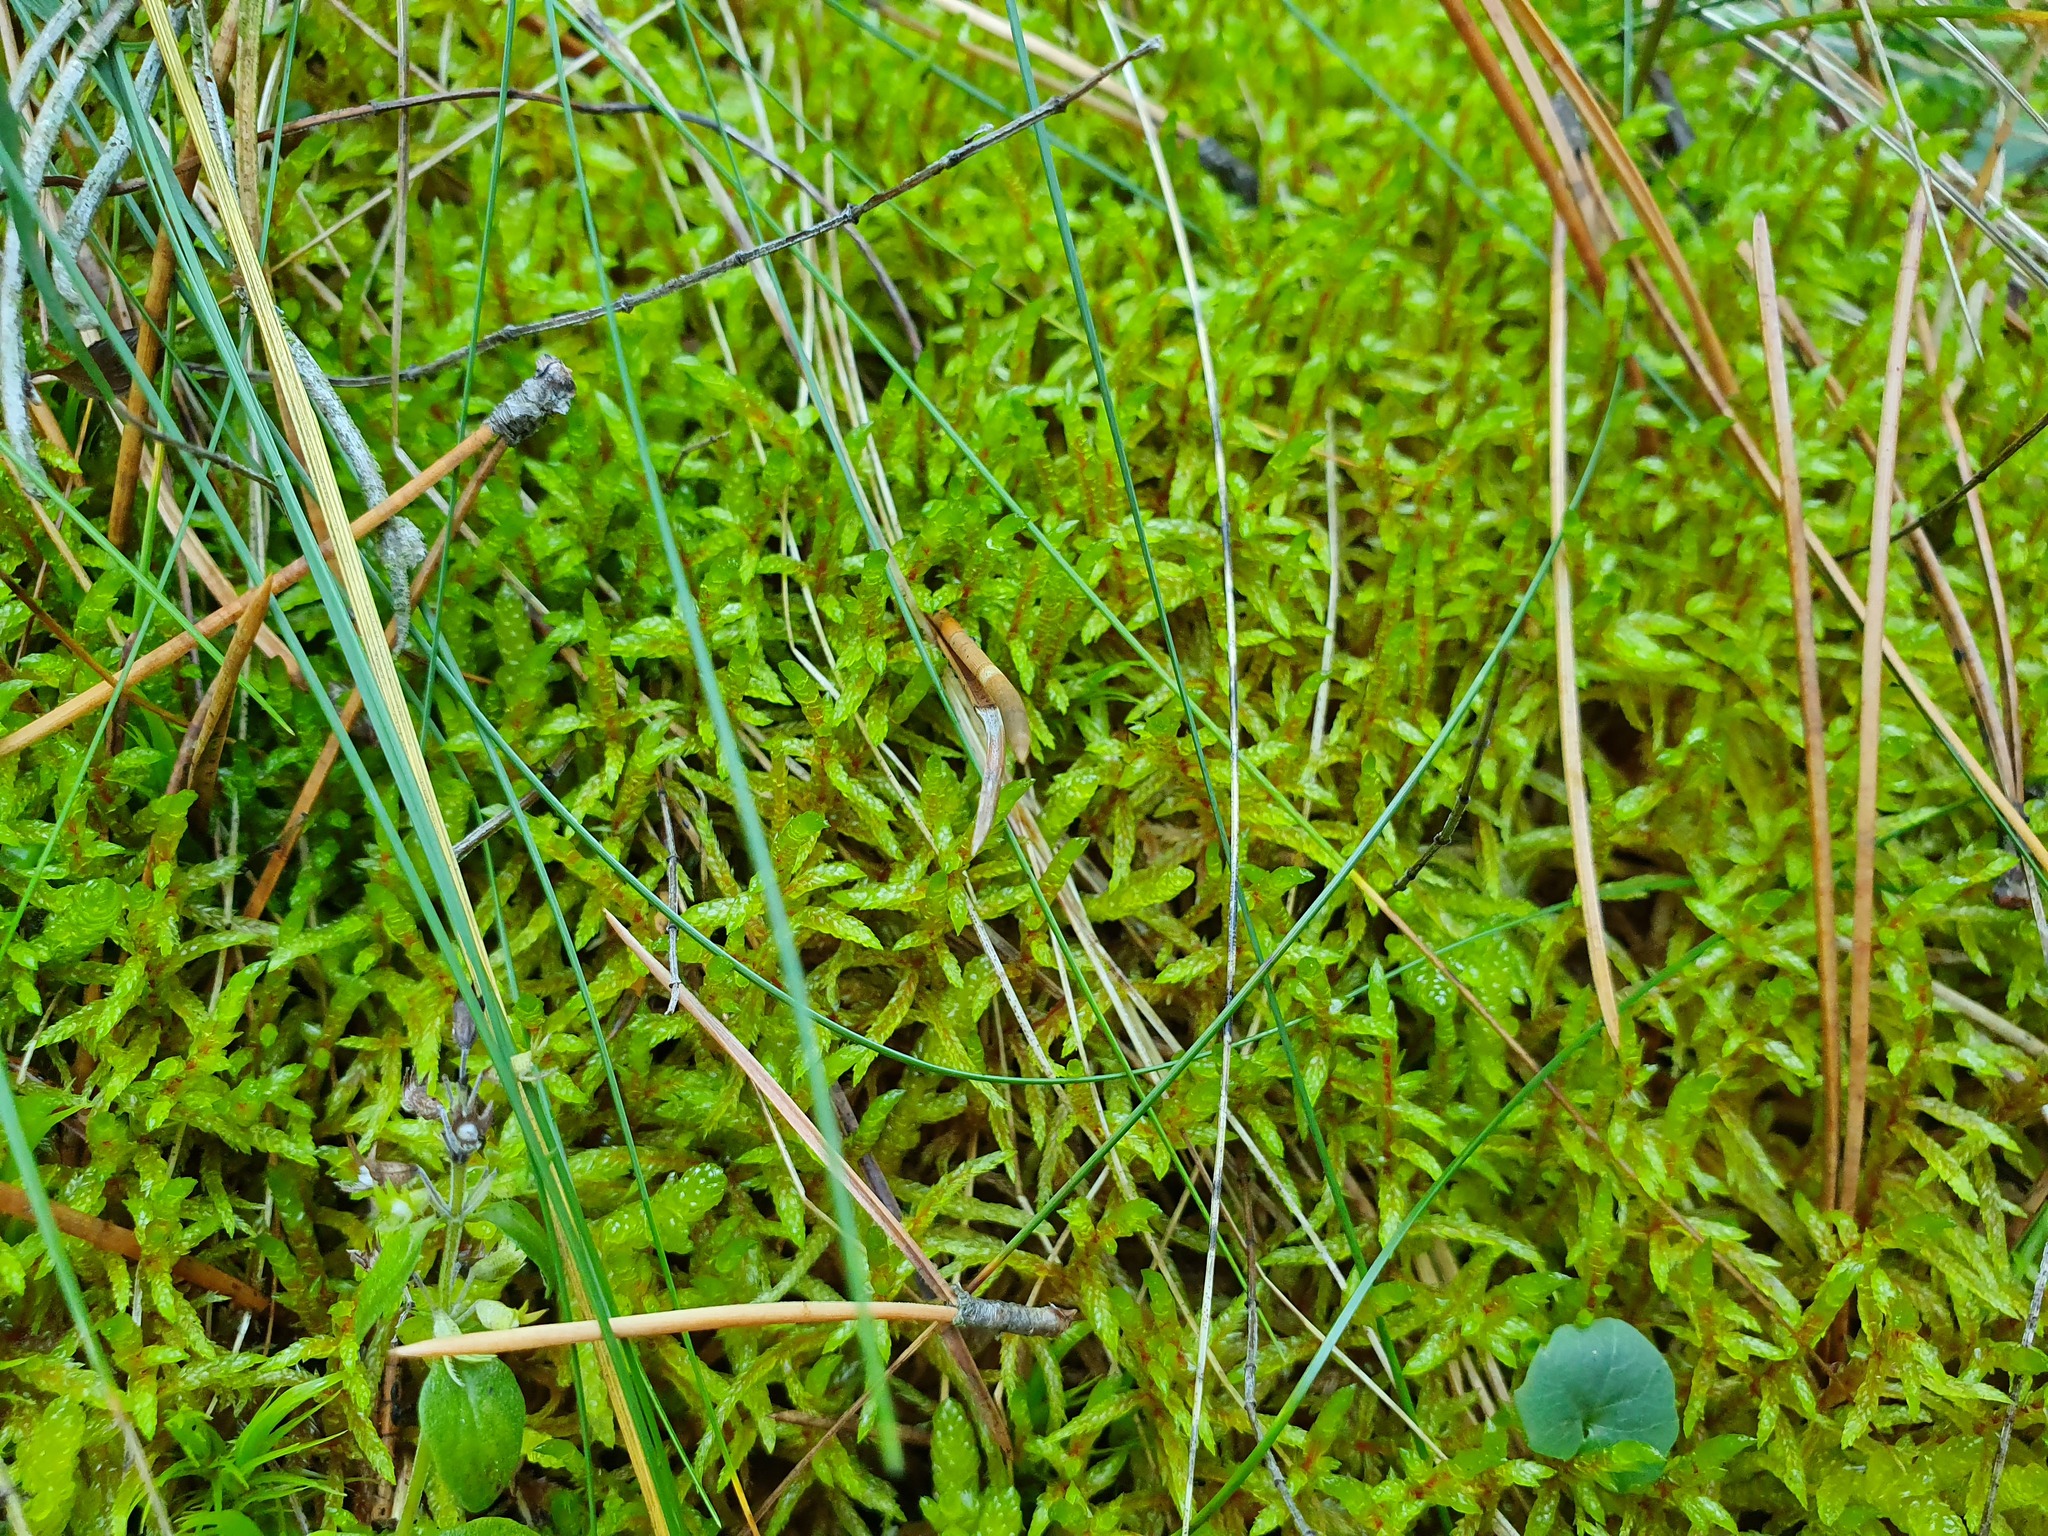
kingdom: Plantae
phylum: Bryophyta
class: Bryopsida
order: Hypnales
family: Hylocomiaceae
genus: Pleurozium
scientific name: Pleurozium schreberi
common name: Red-stemmed feather moss
